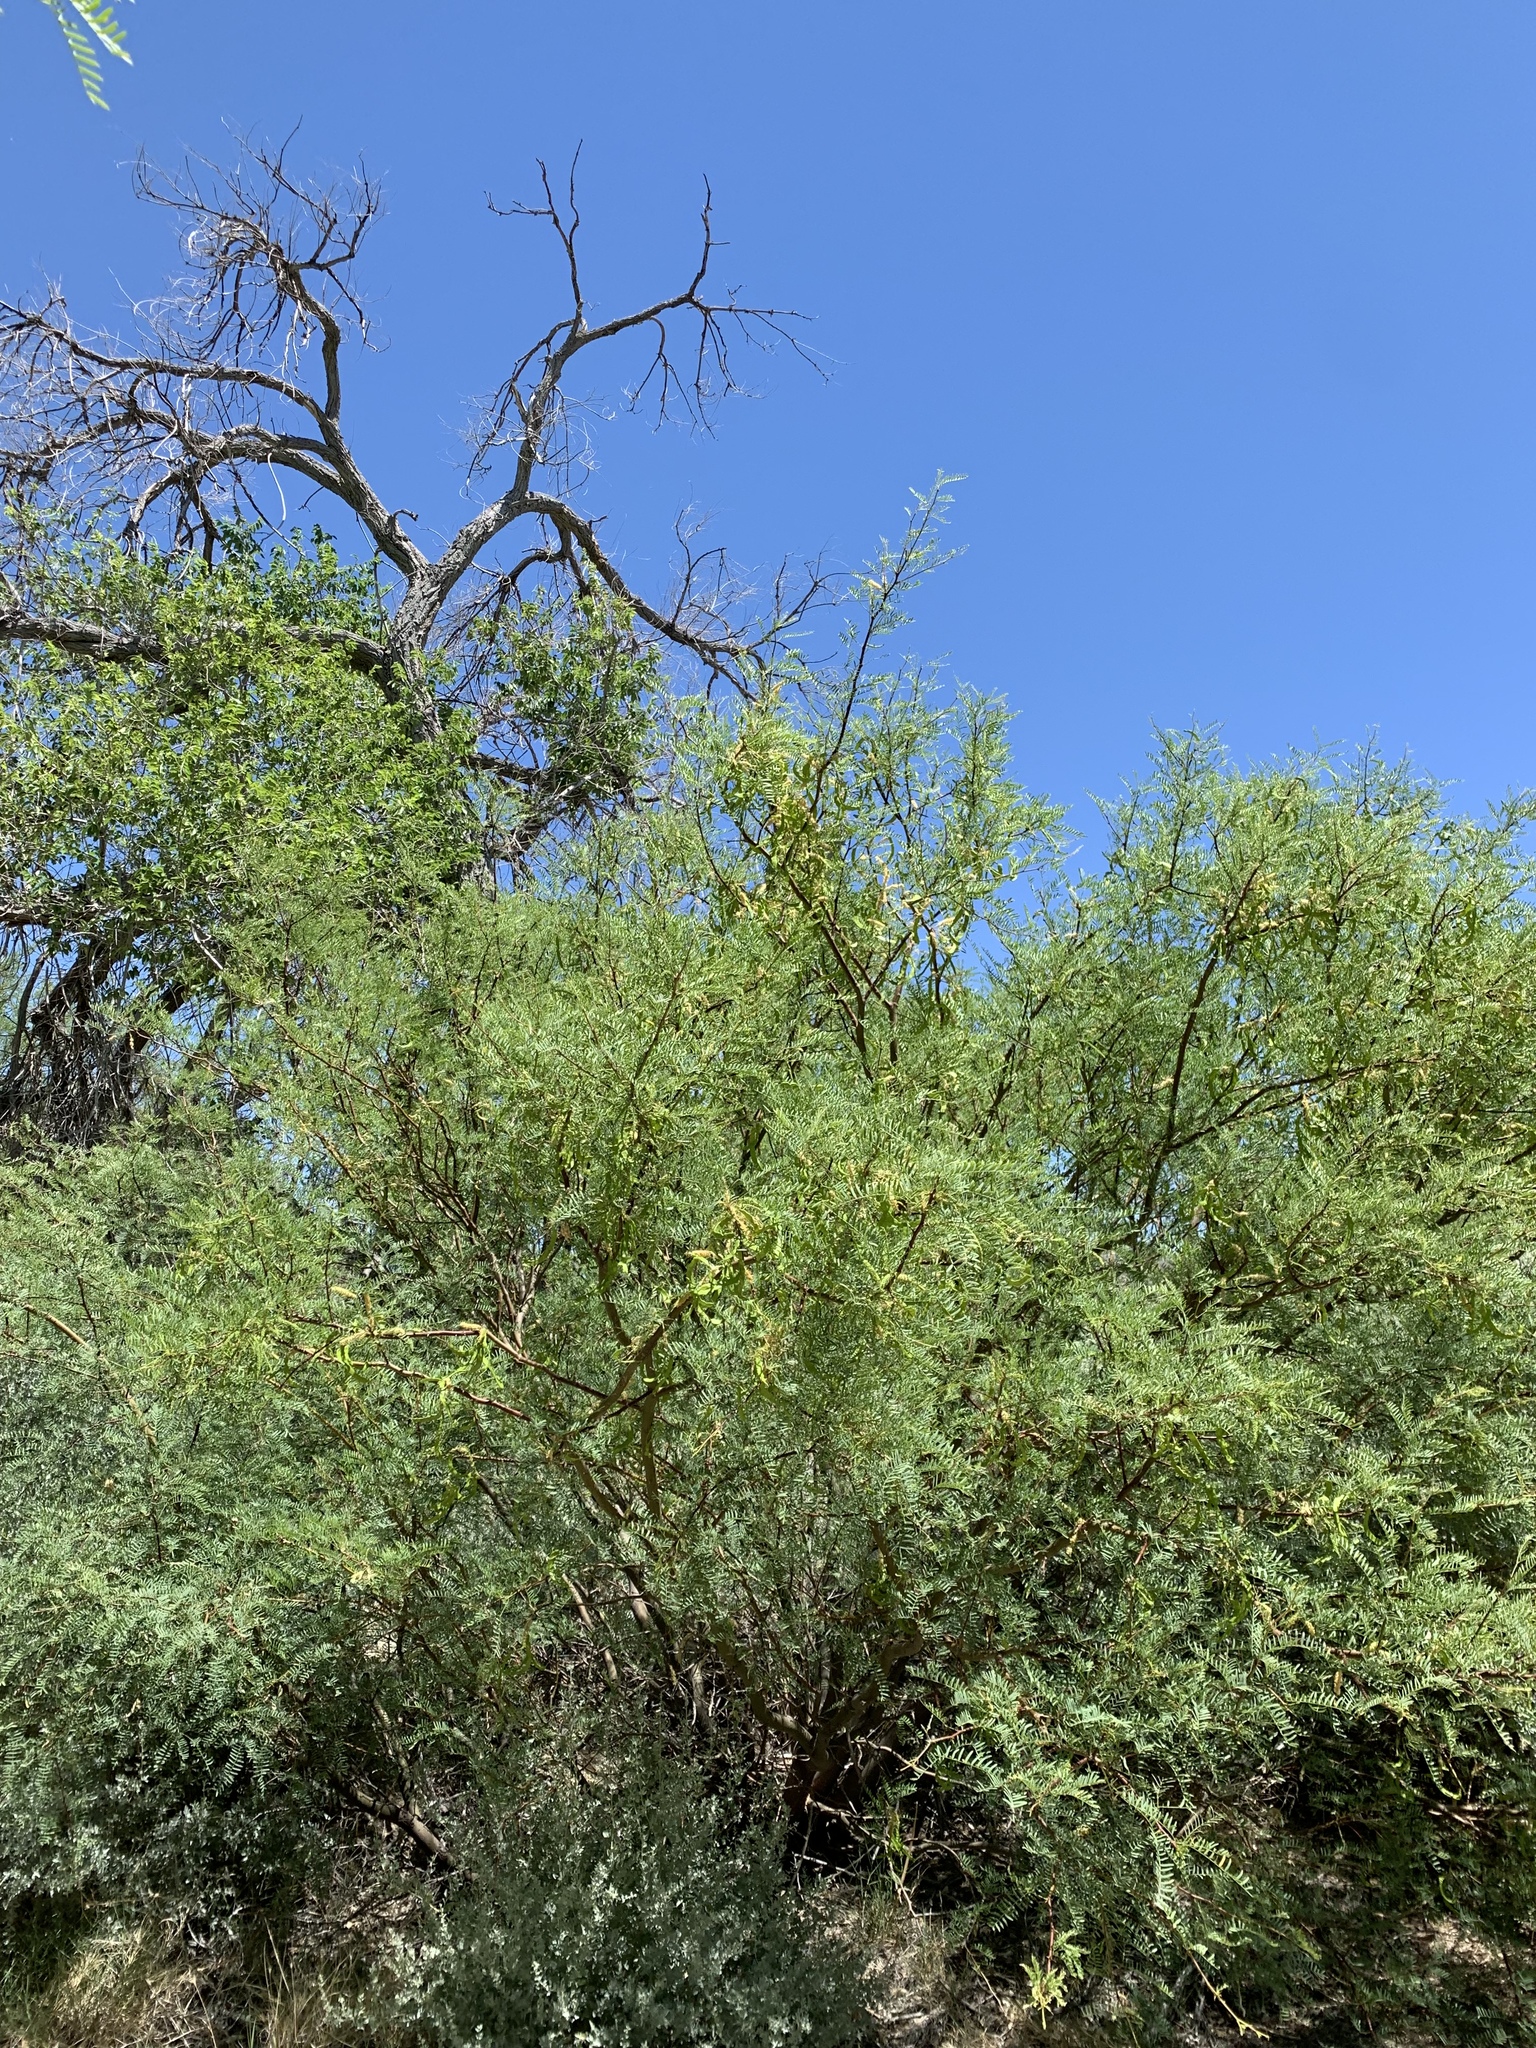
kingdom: Plantae
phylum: Tracheophyta
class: Magnoliopsida
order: Fabales
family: Fabaceae
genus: Prosopis
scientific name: Prosopis pubescens
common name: Screw-bean
